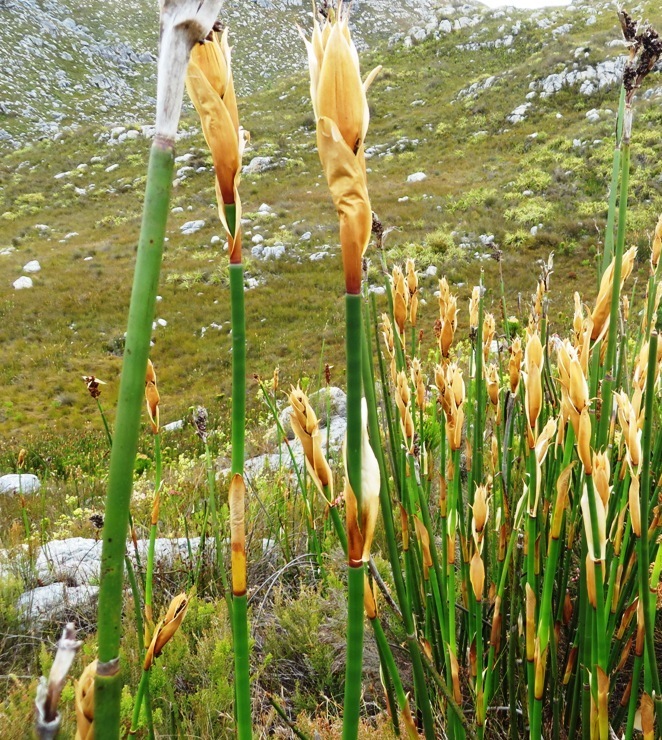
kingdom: Plantae
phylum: Tracheophyta
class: Liliopsida
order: Poales
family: Restionaceae
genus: Elegia
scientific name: Elegia mucronata
